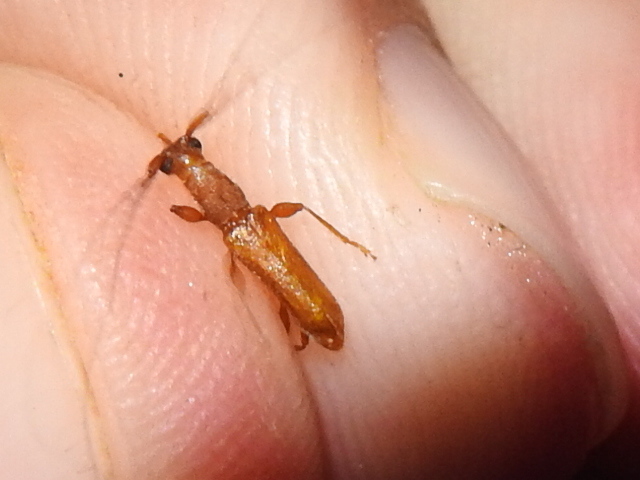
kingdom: Animalia
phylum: Arthropoda
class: Insecta
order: Coleoptera
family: Cerambycidae
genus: Hypexilis
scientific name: Hypexilis pallida
